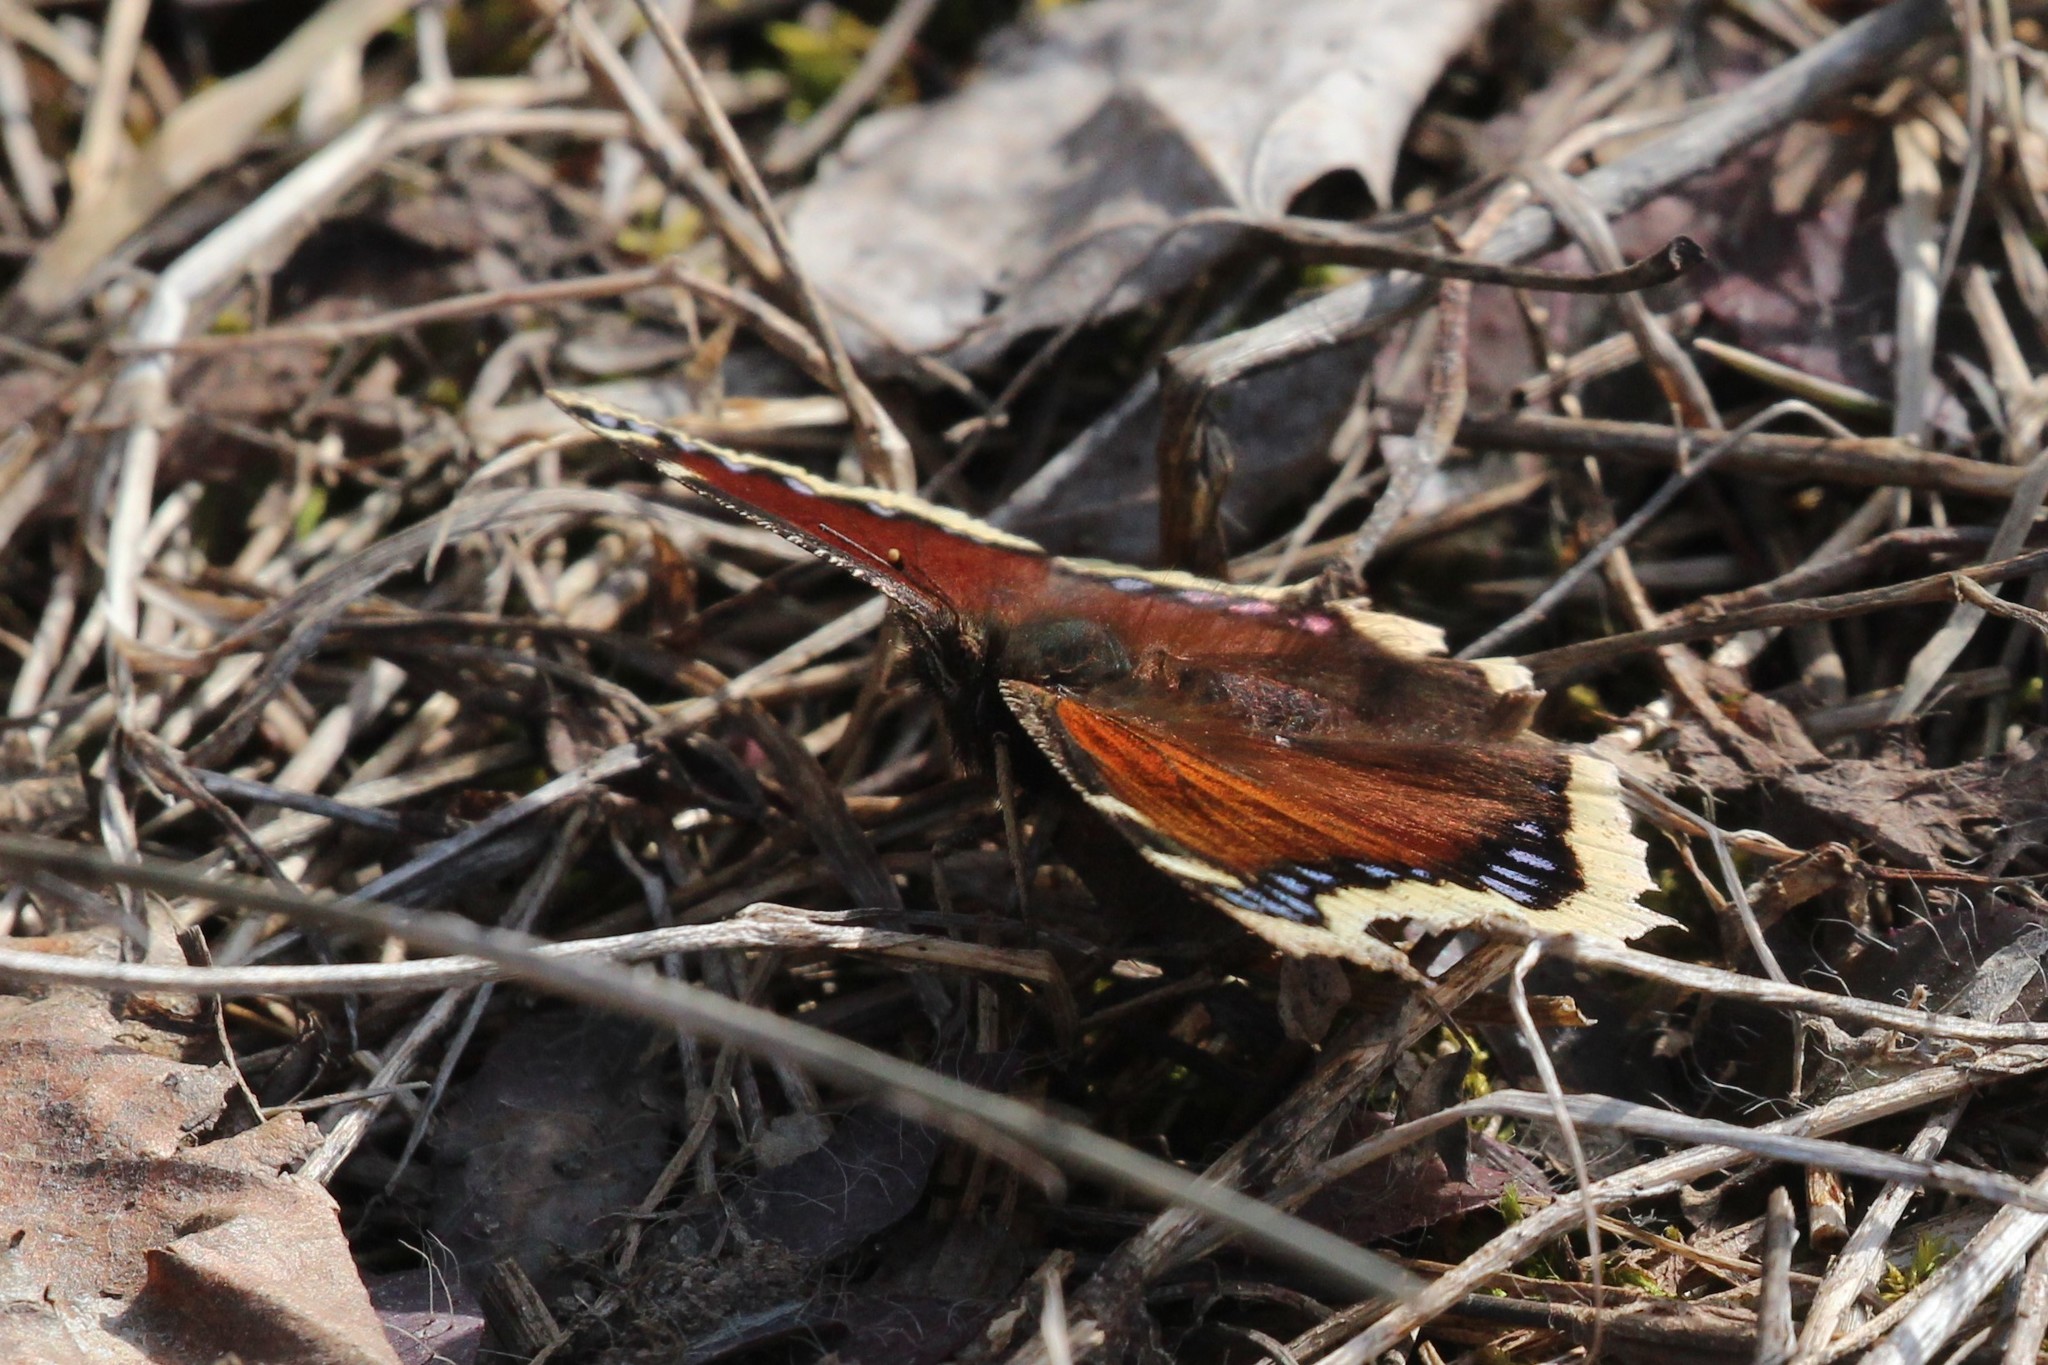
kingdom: Animalia
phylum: Arthropoda
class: Insecta
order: Lepidoptera
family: Nymphalidae
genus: Nymphalis
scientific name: Nymphalis antiopa
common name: Camberwell beauty
